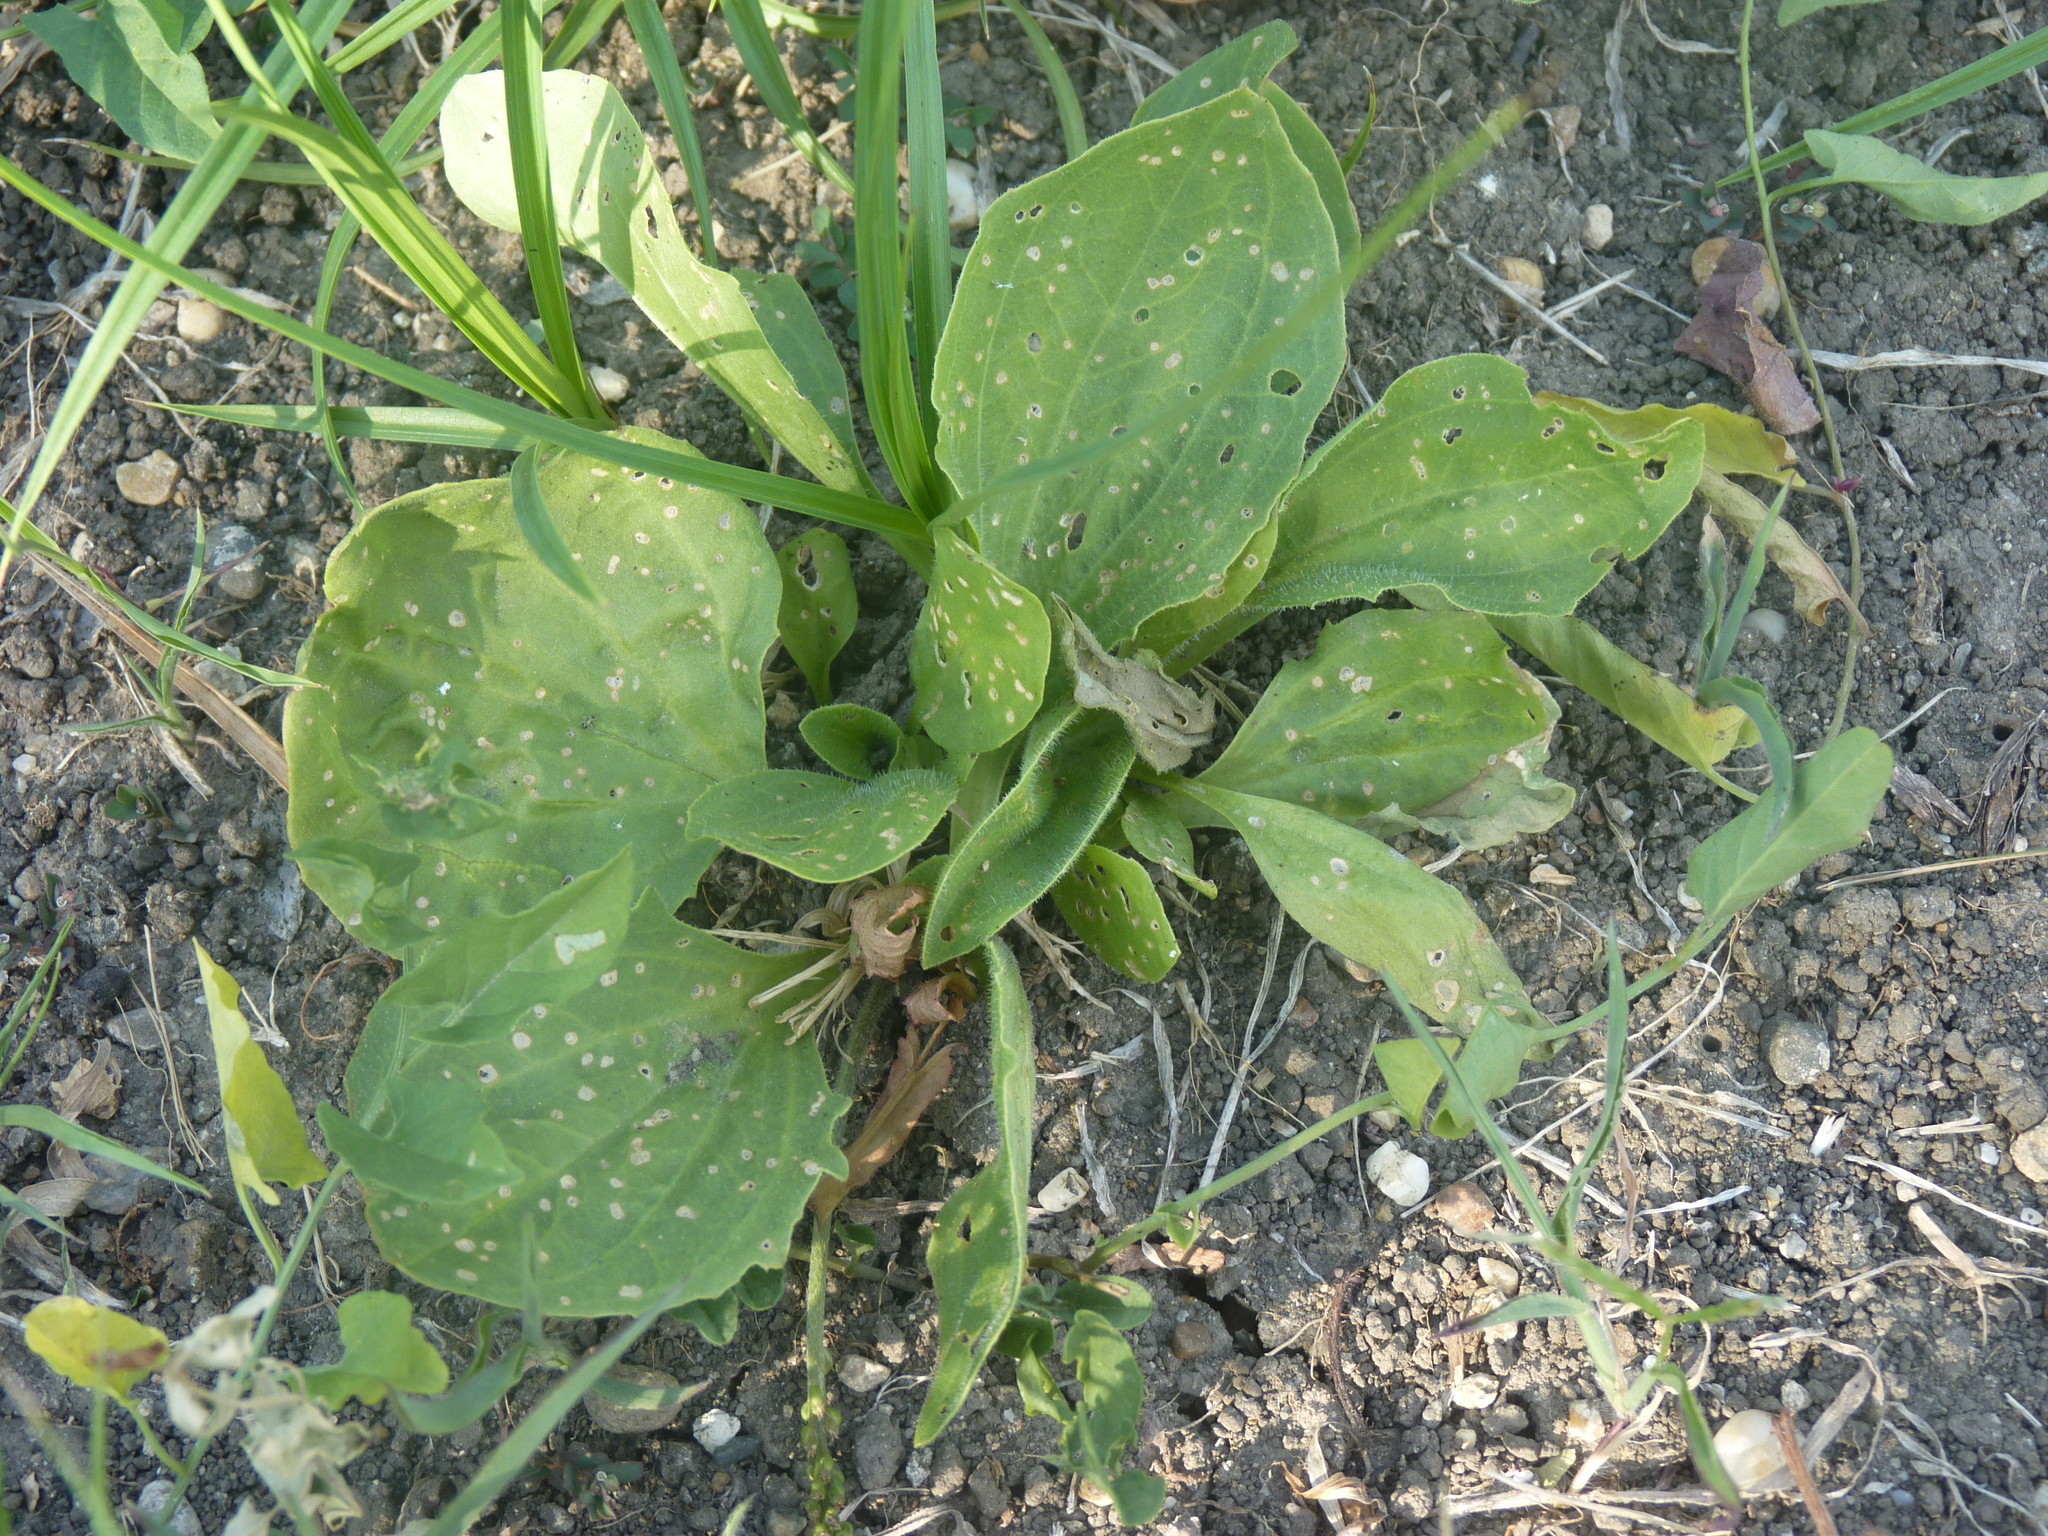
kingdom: Plantae
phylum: Tracheophyta
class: Magnoliopsida
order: Lamiales
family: Plantaginaceae
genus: Plantago
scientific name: Plantago major
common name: Common plantain
